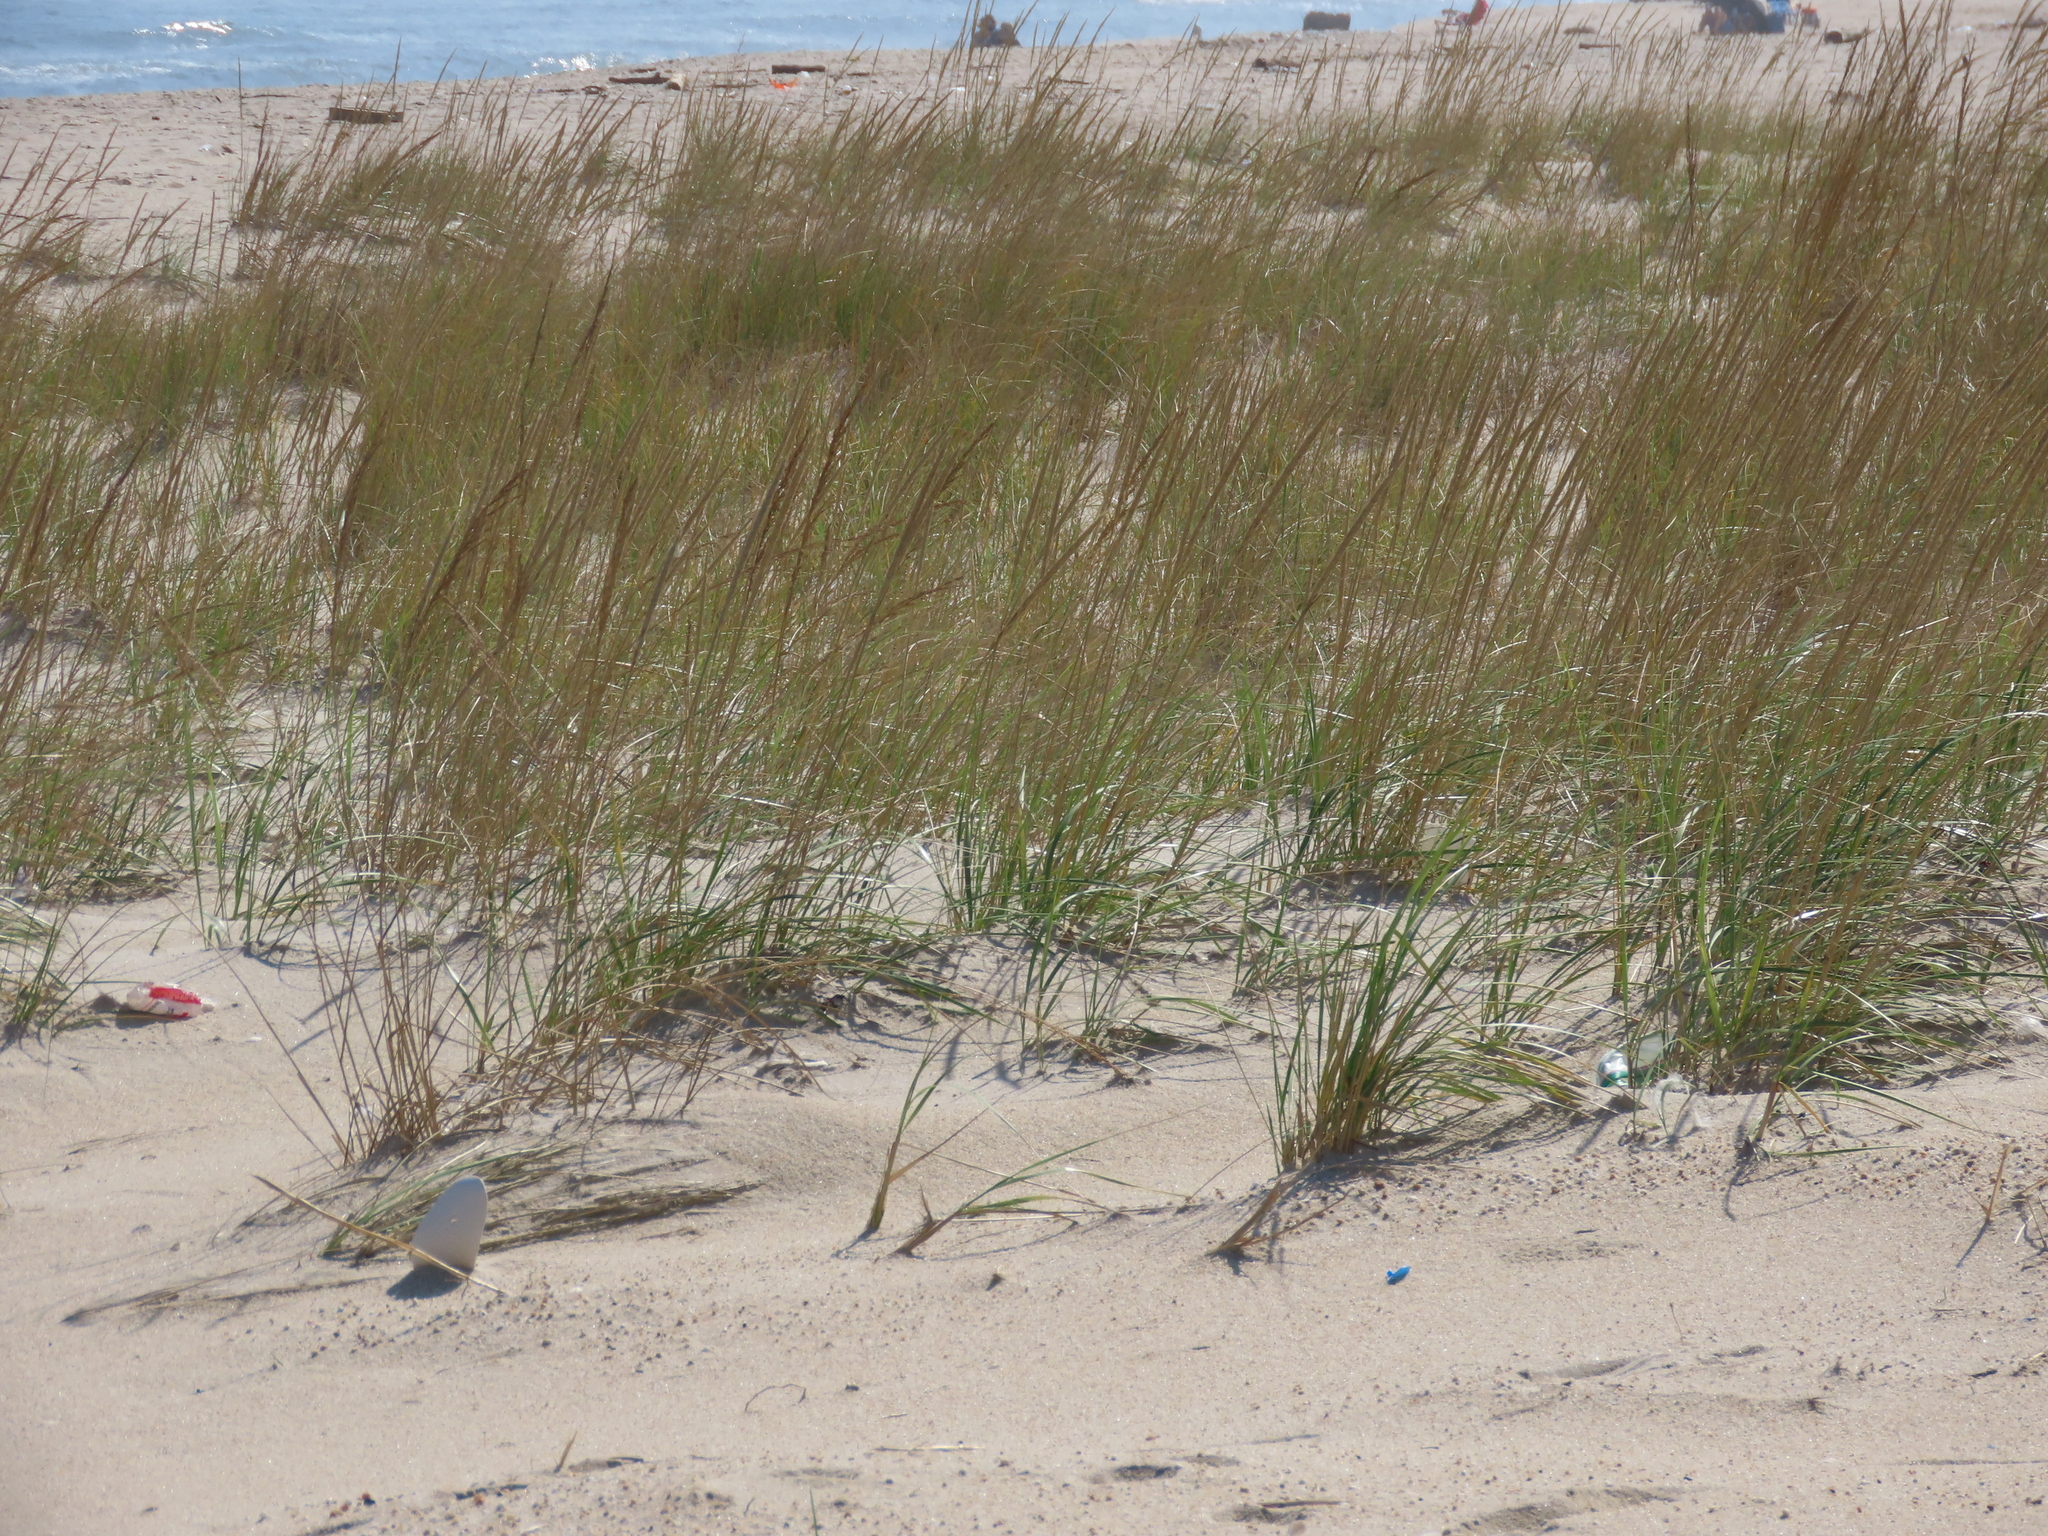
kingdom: Plantae
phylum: Tracheophyta
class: Liliopsida
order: Poales
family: Poaceae
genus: Calamagrostis
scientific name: Calamagrostis breviligulata
